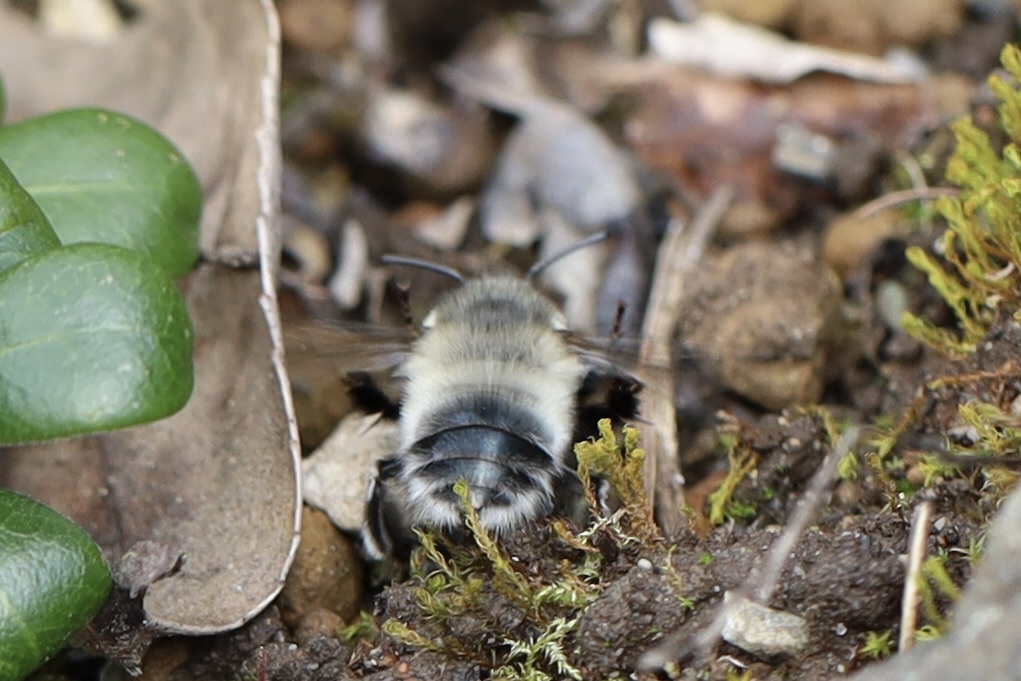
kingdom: Animalia
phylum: Arthropoda
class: Insecta
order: Hymenoptera
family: Apidae
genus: Anthophora
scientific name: Anthophora pacifica
